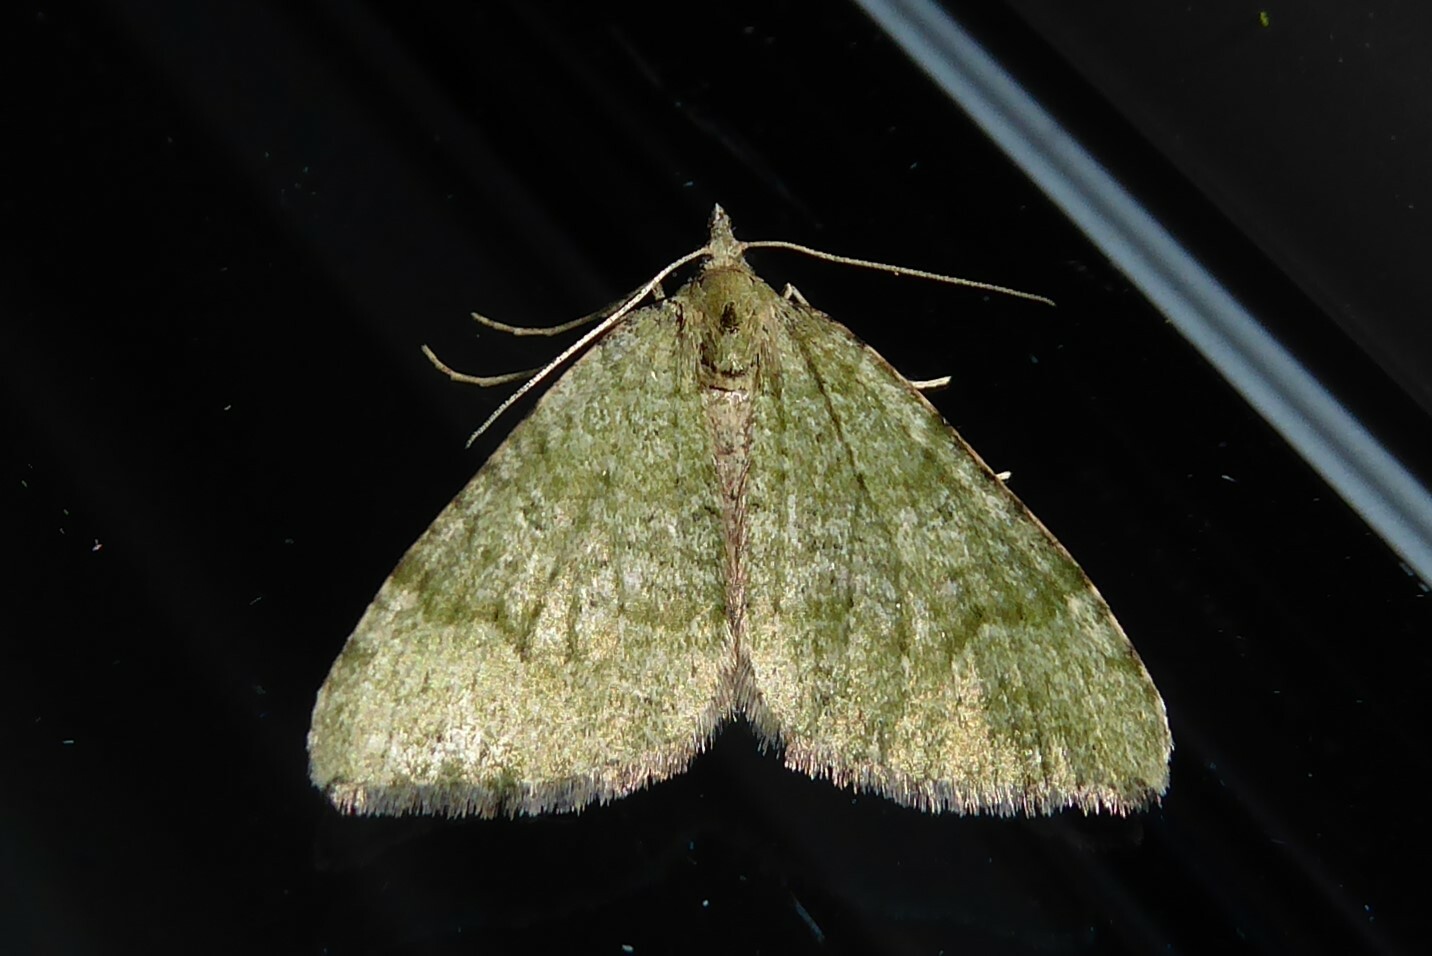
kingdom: Animalia
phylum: Arthropoda
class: Insecta
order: Lepidoptera
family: Geometridae
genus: Epyaxa
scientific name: Epyaxa rosearia
